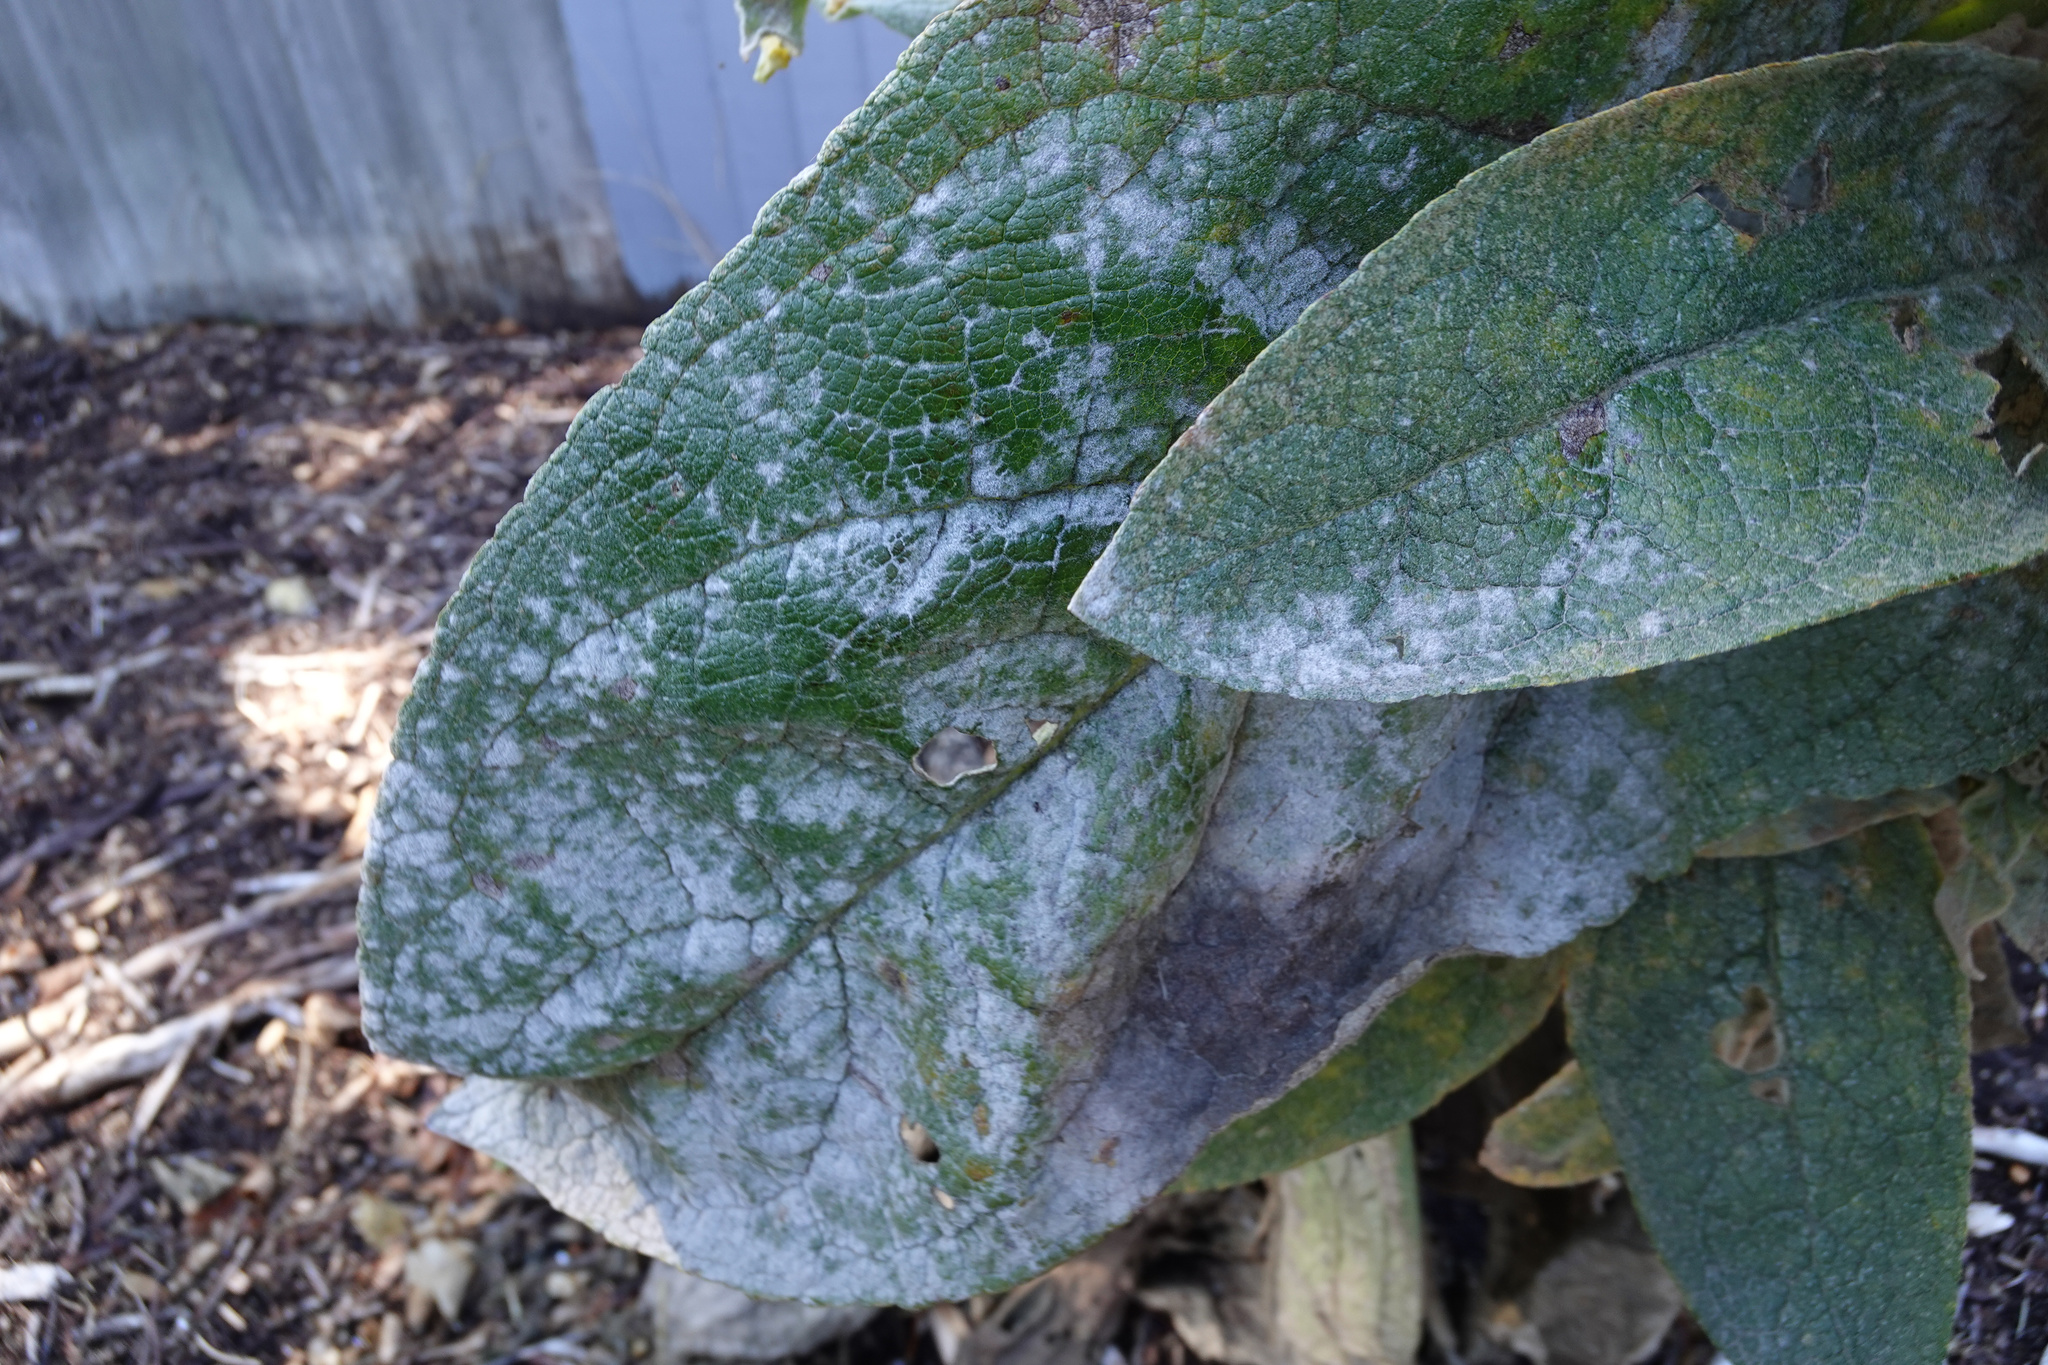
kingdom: Fungi
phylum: Ascomycota
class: Leotiomycetes
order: Helotiales
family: Erysiphaceae
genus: Golovinomyces
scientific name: Golovinomyces verbasci
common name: Powdery mildew
